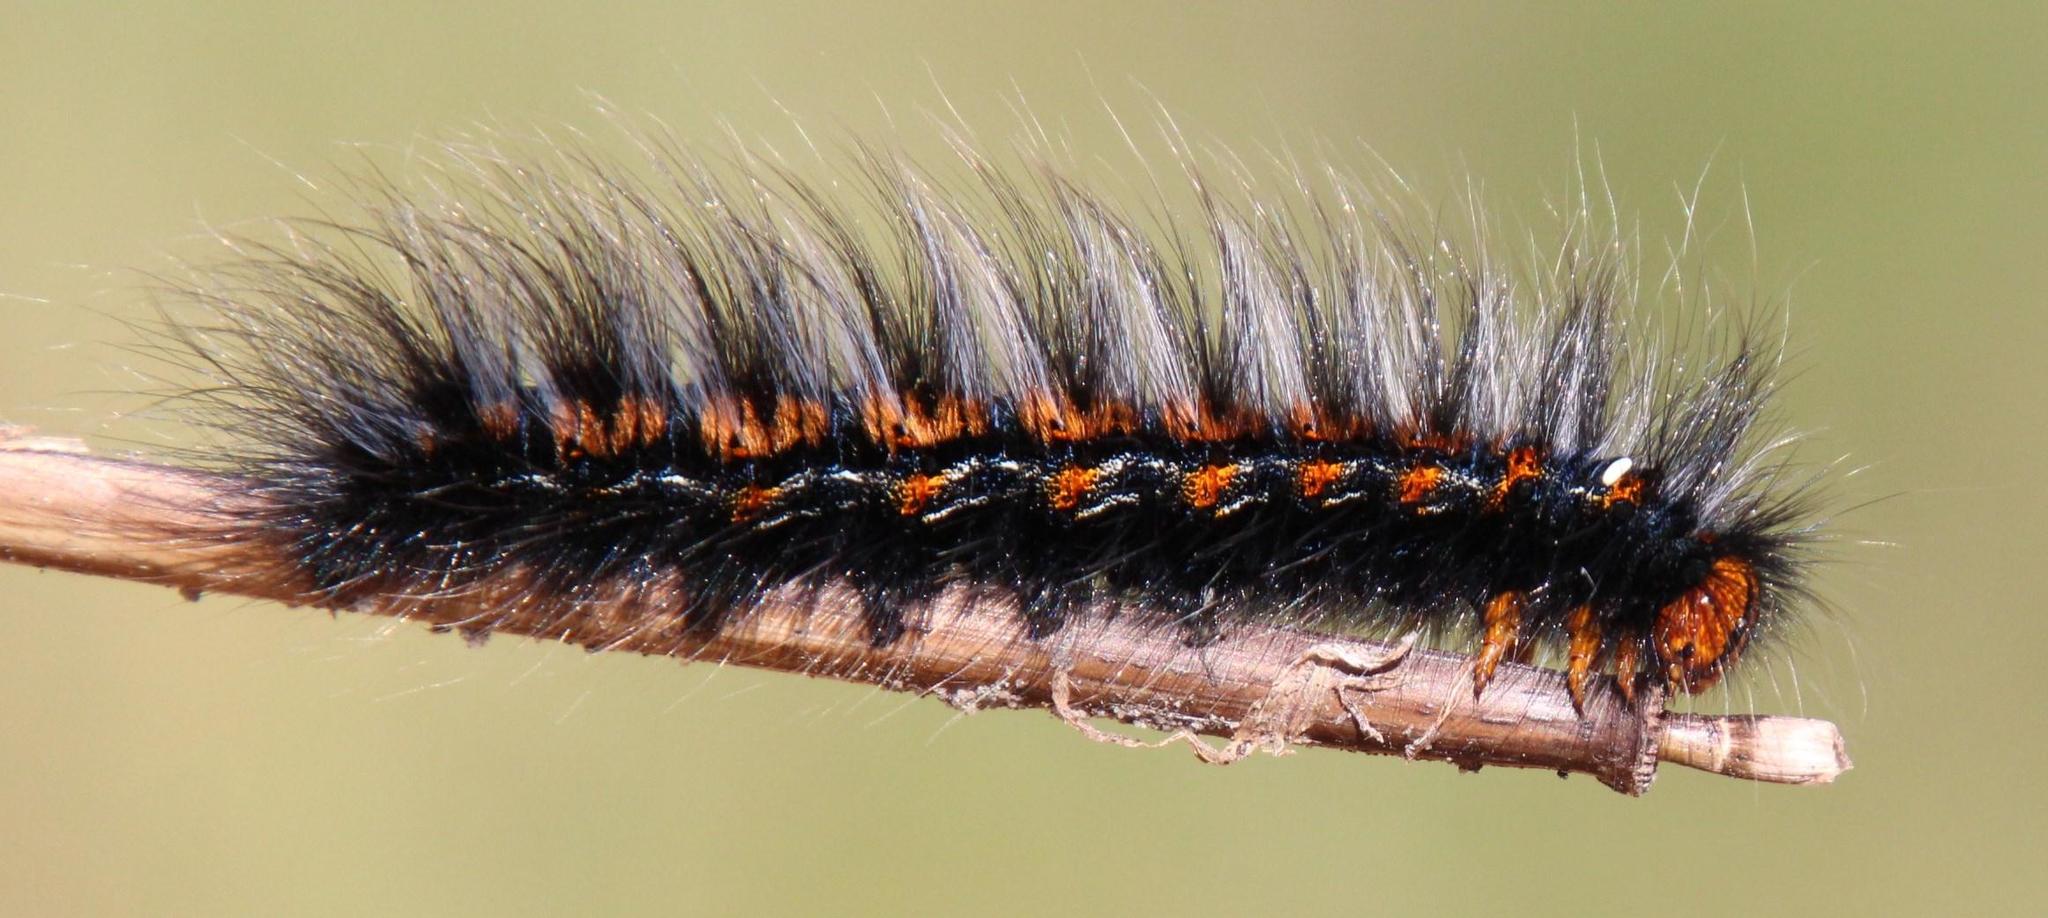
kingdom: Animalia
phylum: Arthropoda
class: Insecta
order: Lepidoptera
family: Lasiocampidae
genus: Mesocelis
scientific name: Mesocelis monticola
